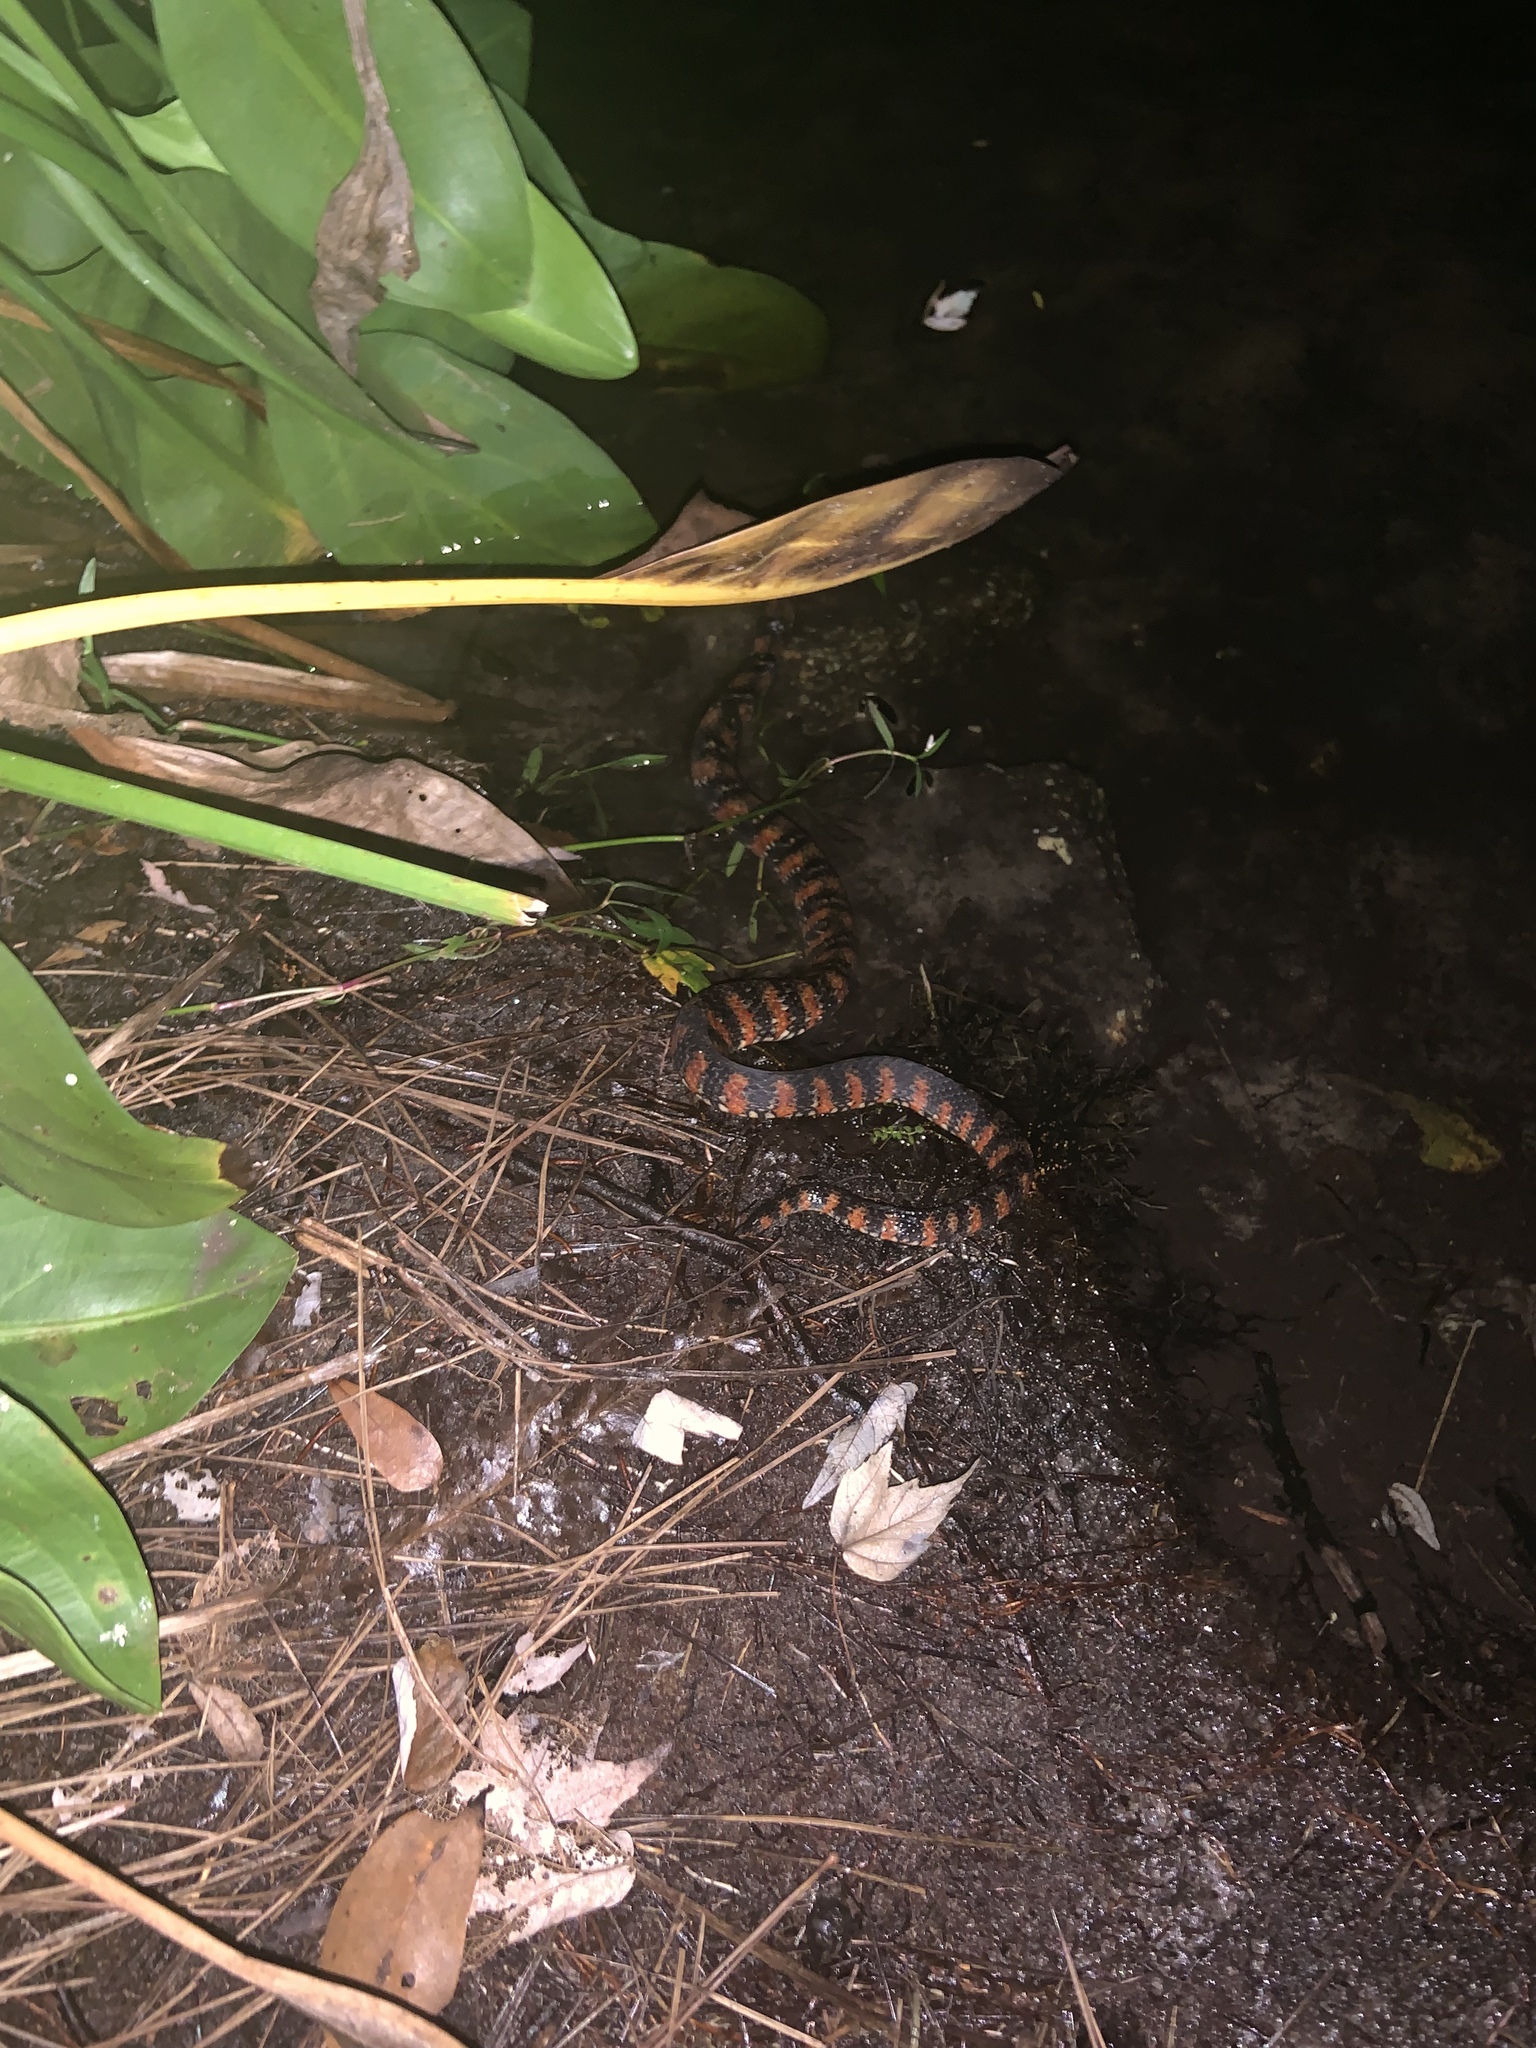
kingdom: Animalia
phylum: Chordata
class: Squamata
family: Colubridae
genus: Nerodia
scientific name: Nerodia fasciata
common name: Southern water snake
